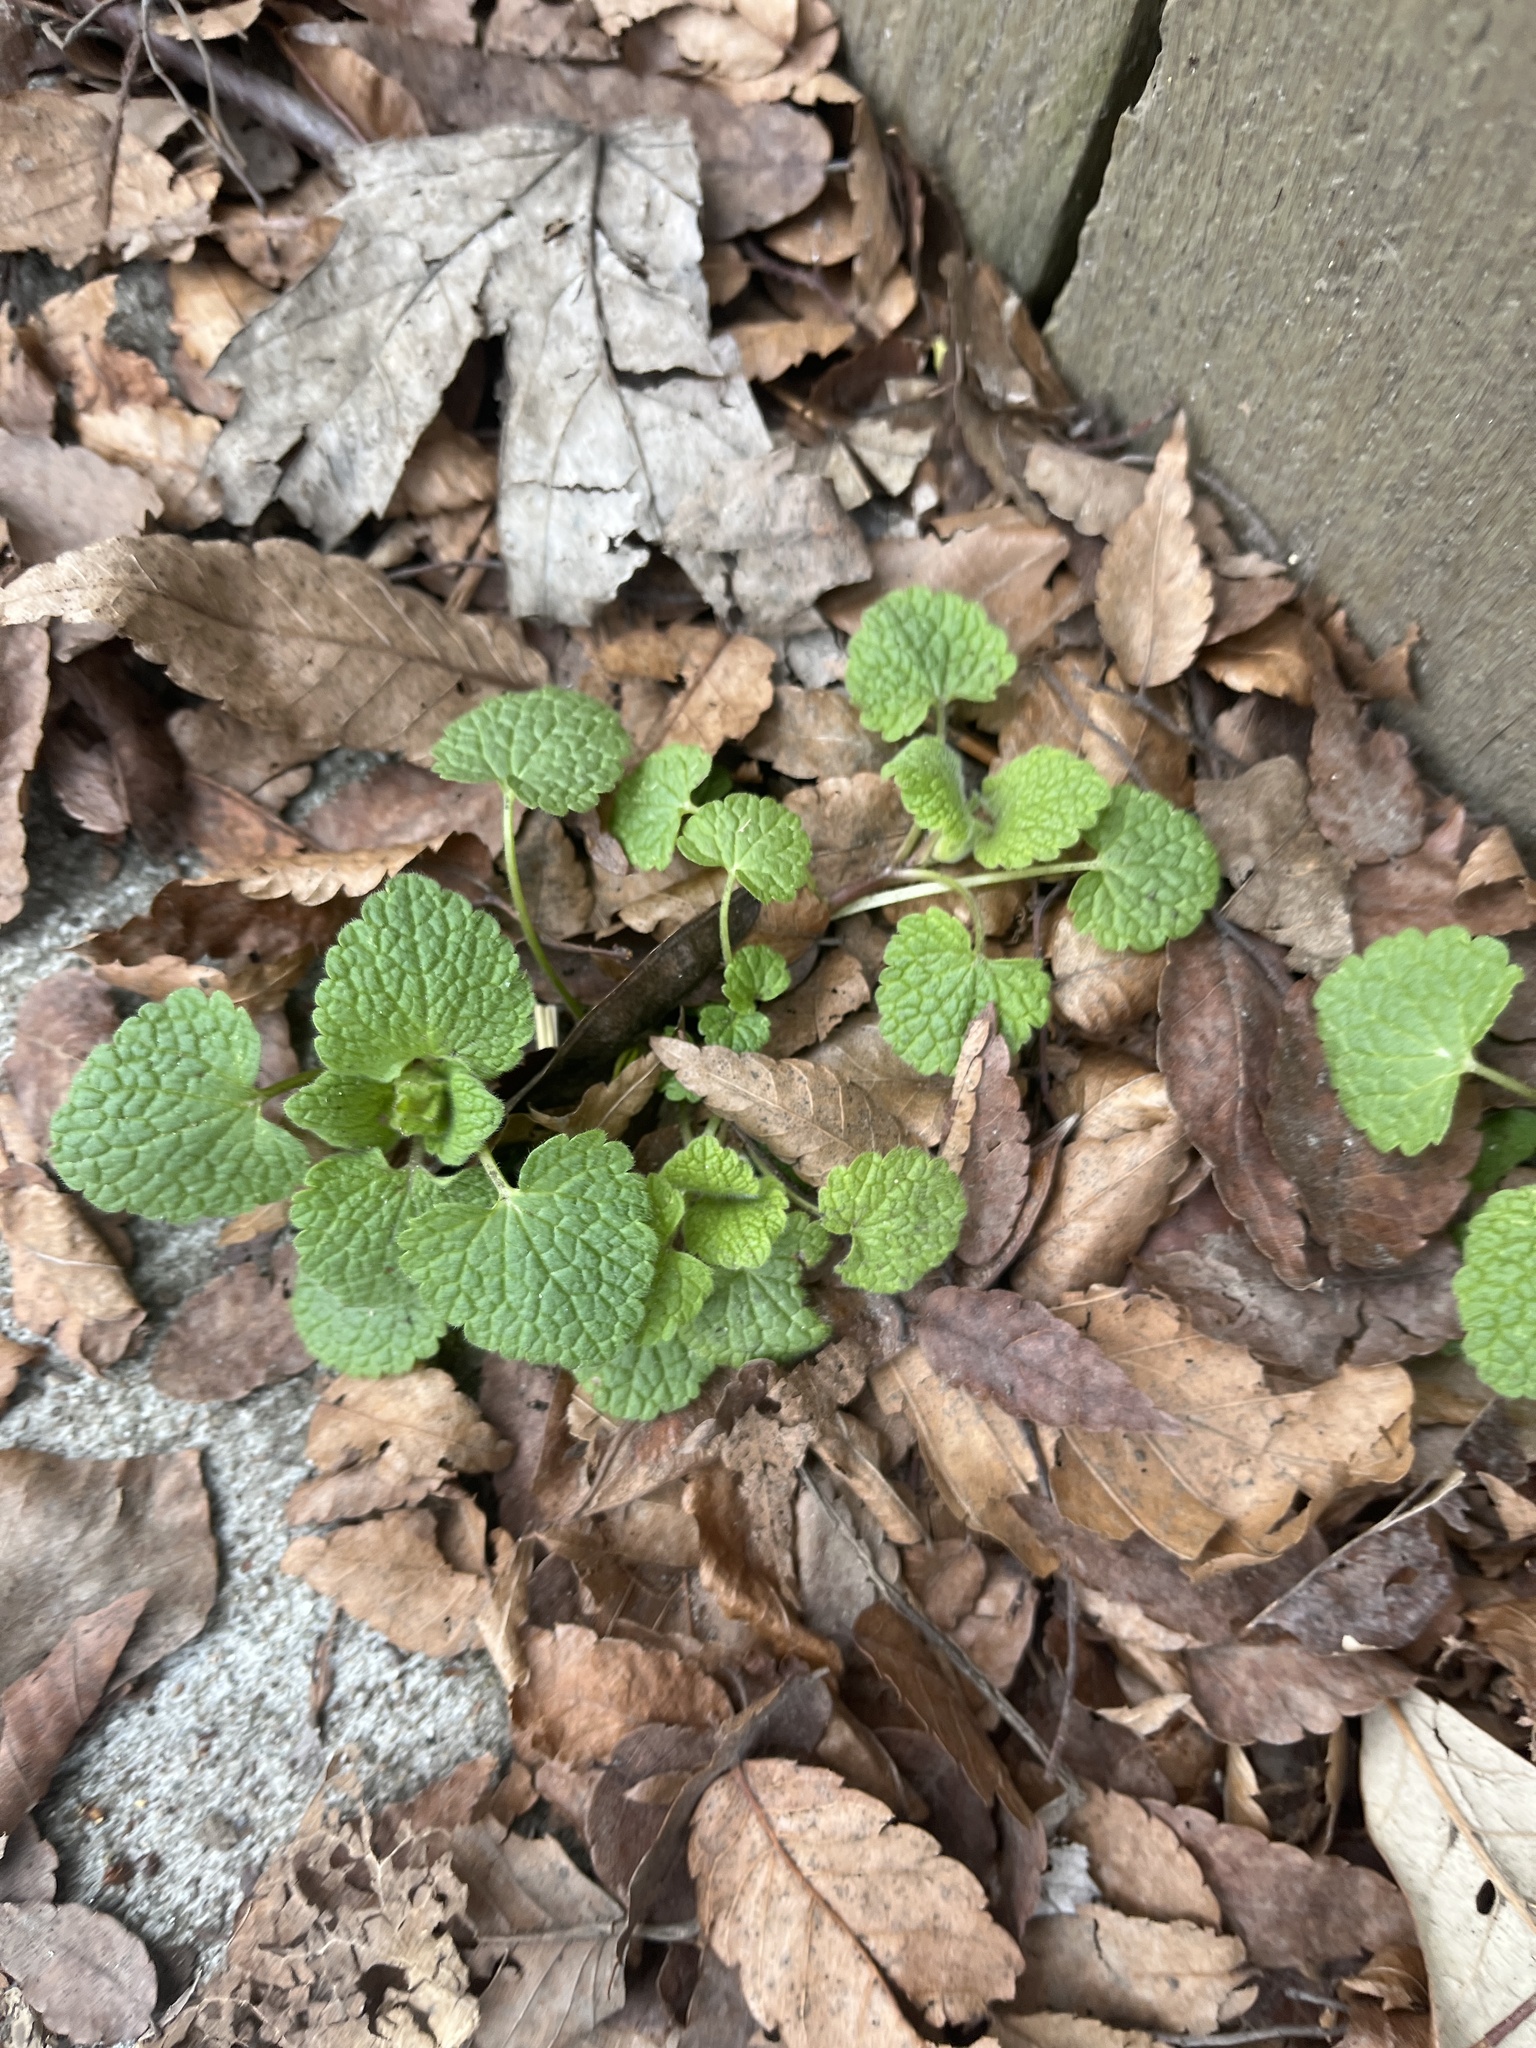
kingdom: Plantae
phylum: Tracheophyta
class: Magnoliopsida
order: Lamiales
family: Lamiaceae
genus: Lamium
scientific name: Lamium purpureum
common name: Red dead-nettle
